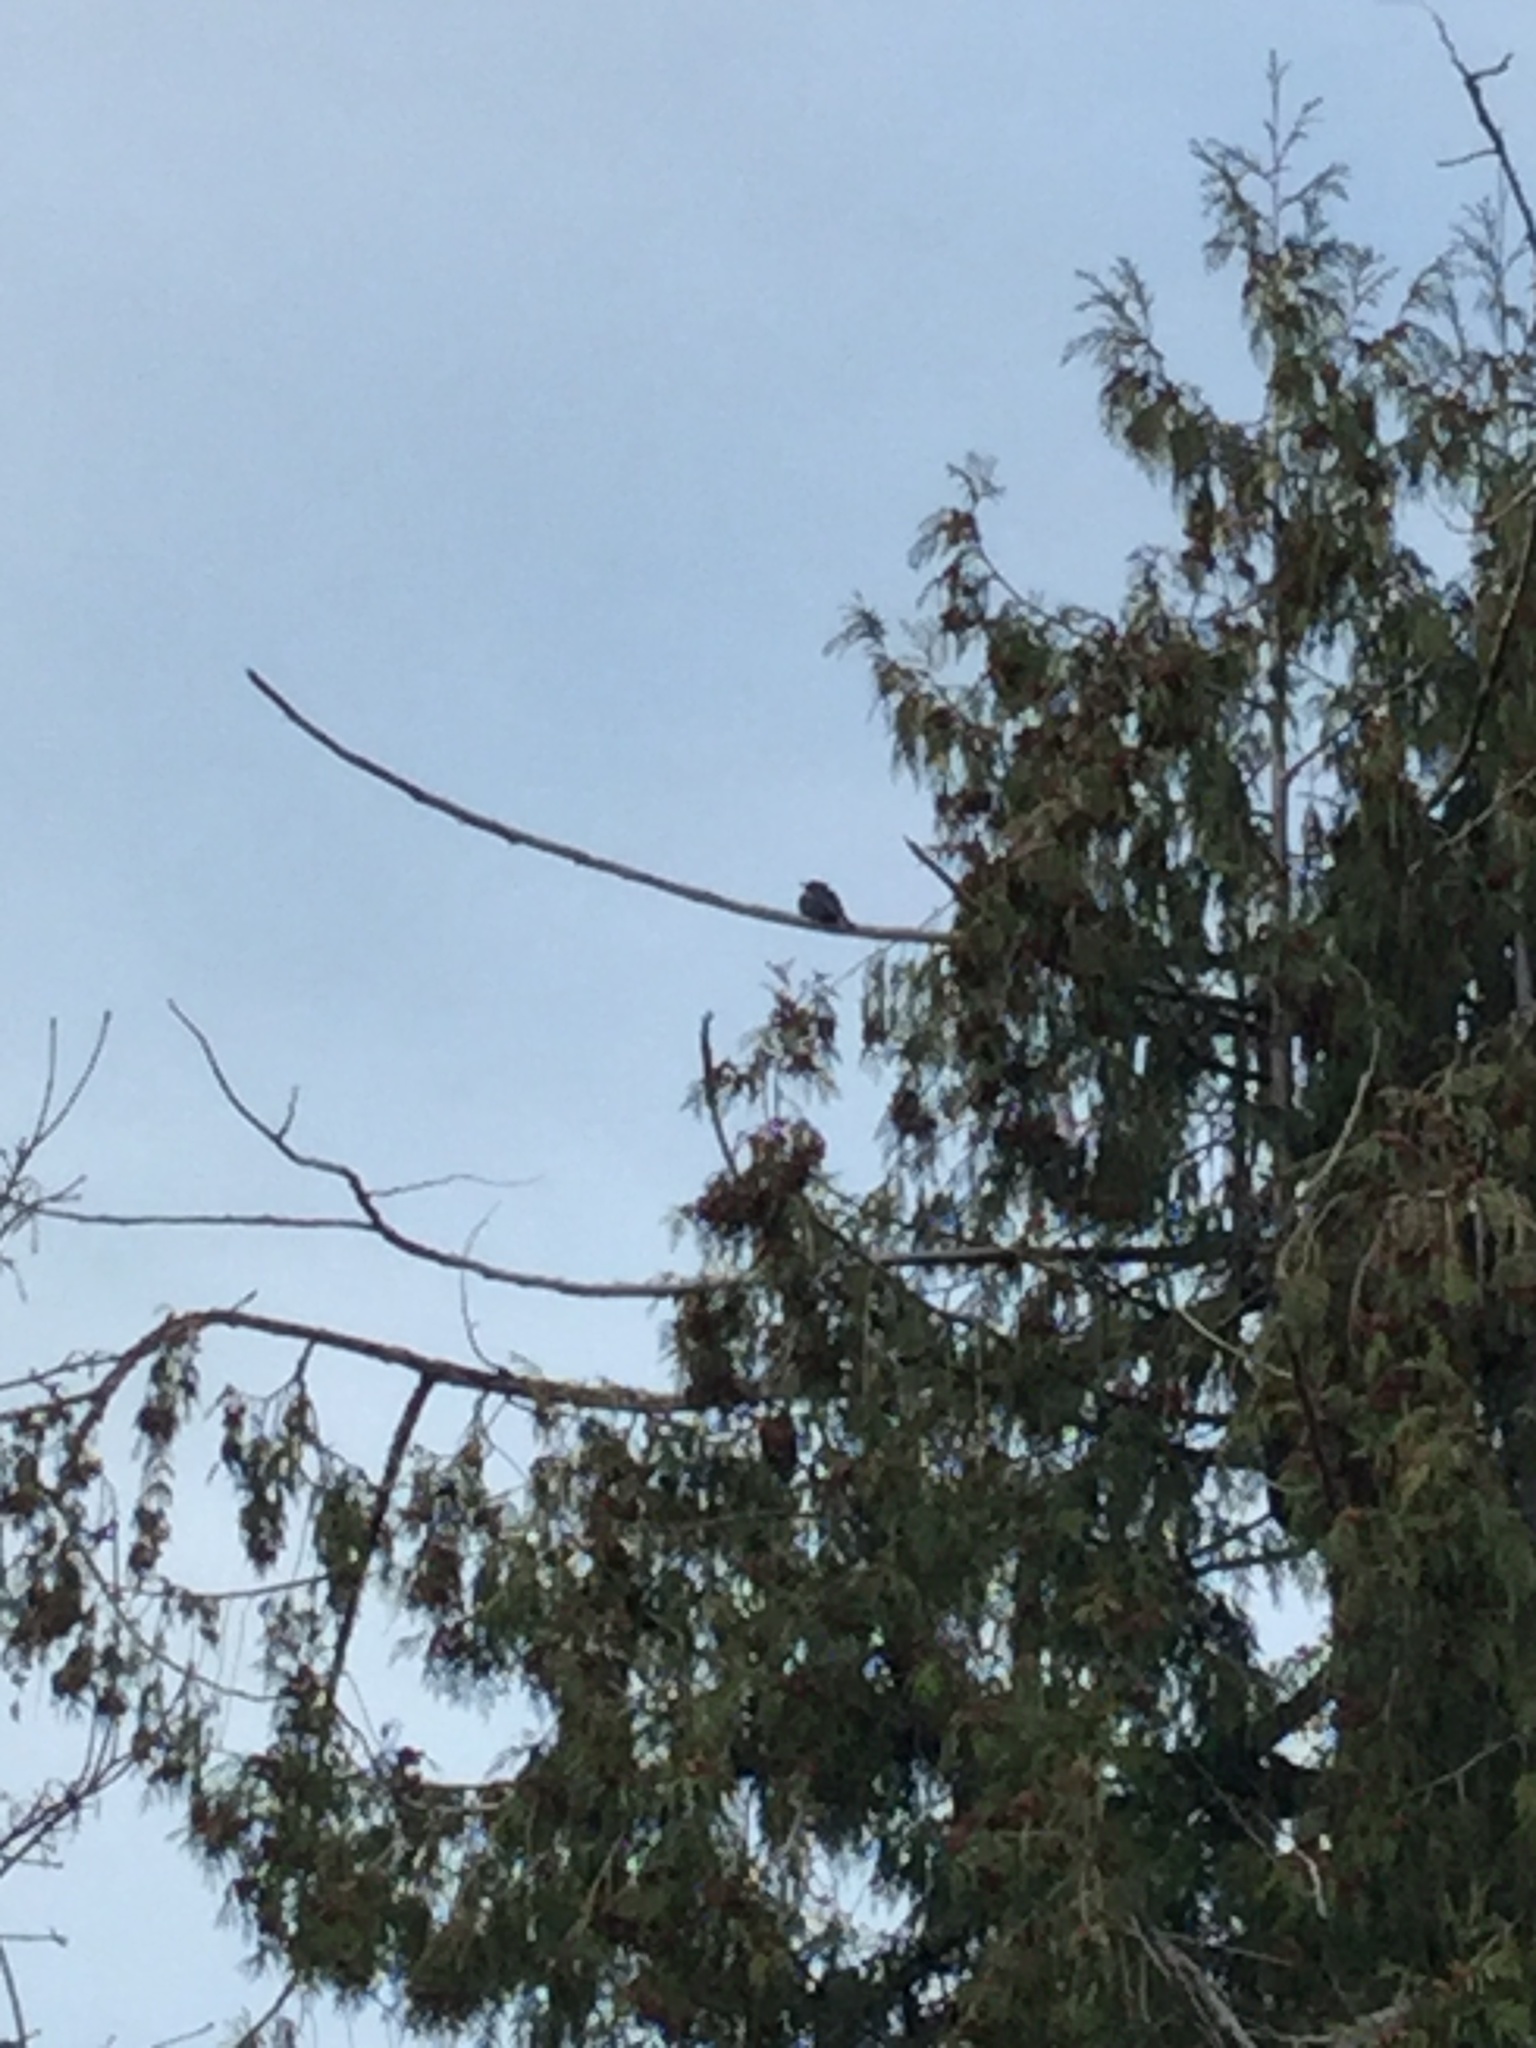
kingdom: Animalia
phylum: Chordata
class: Aves
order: Passeriformes
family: Corvidae
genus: Cyanocitta
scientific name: Cyanocitta stelleri
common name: Steller's jay
